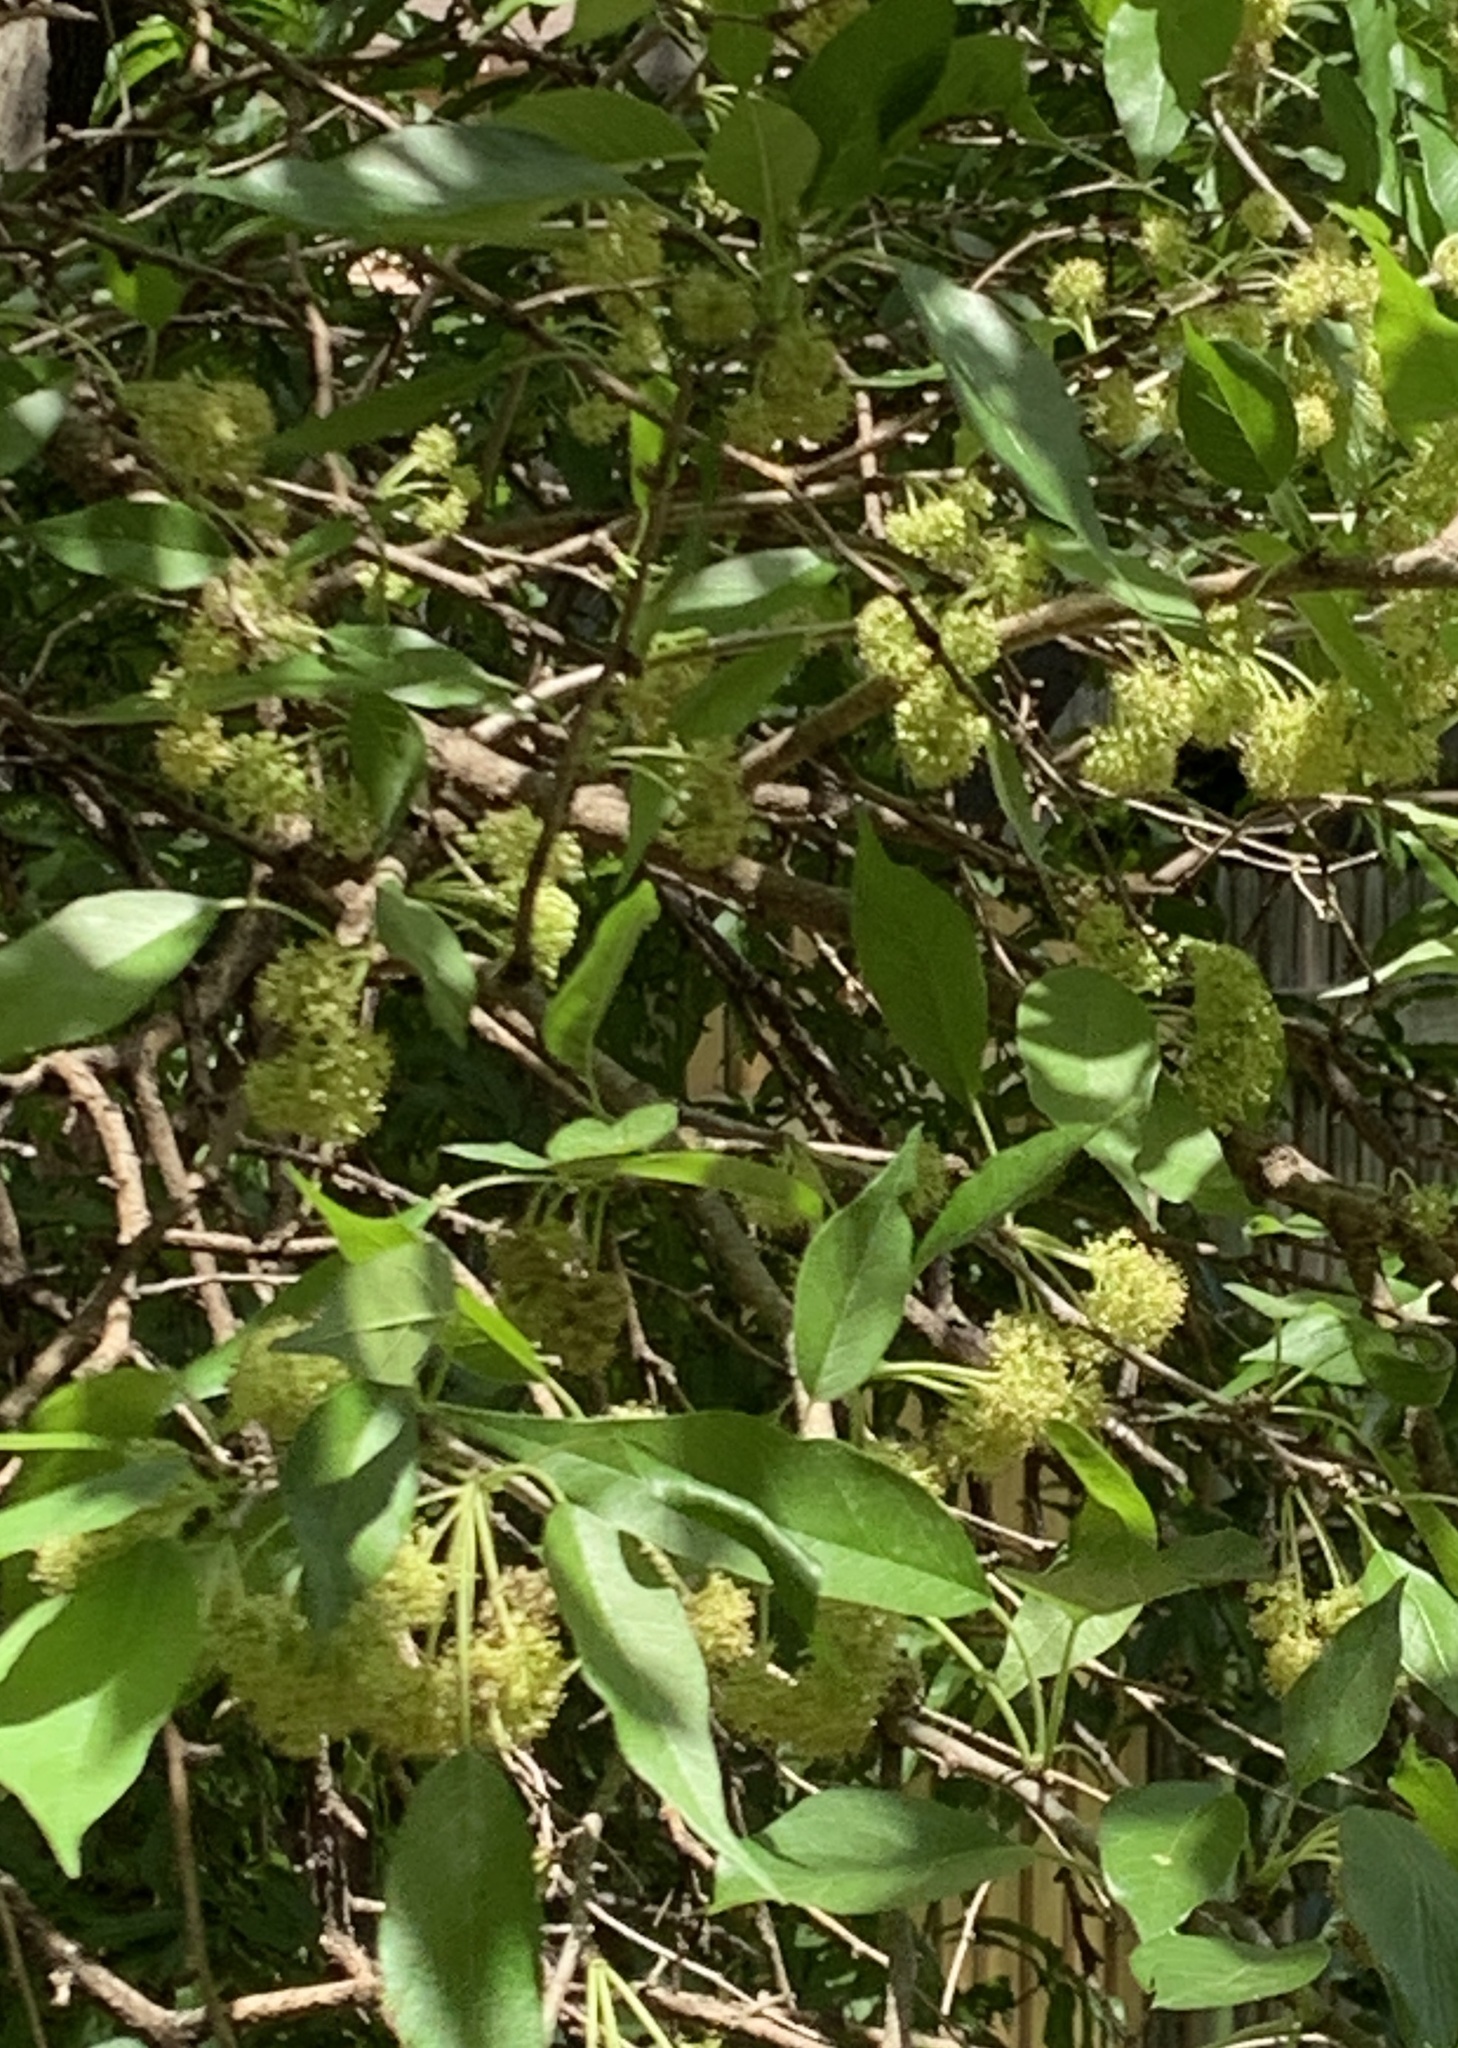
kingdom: Plantae
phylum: Tracheophyta
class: Magnoliopsida
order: Rosales
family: Moraceae
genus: Maclura
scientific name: Maclura pomifera
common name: Osage-orange
